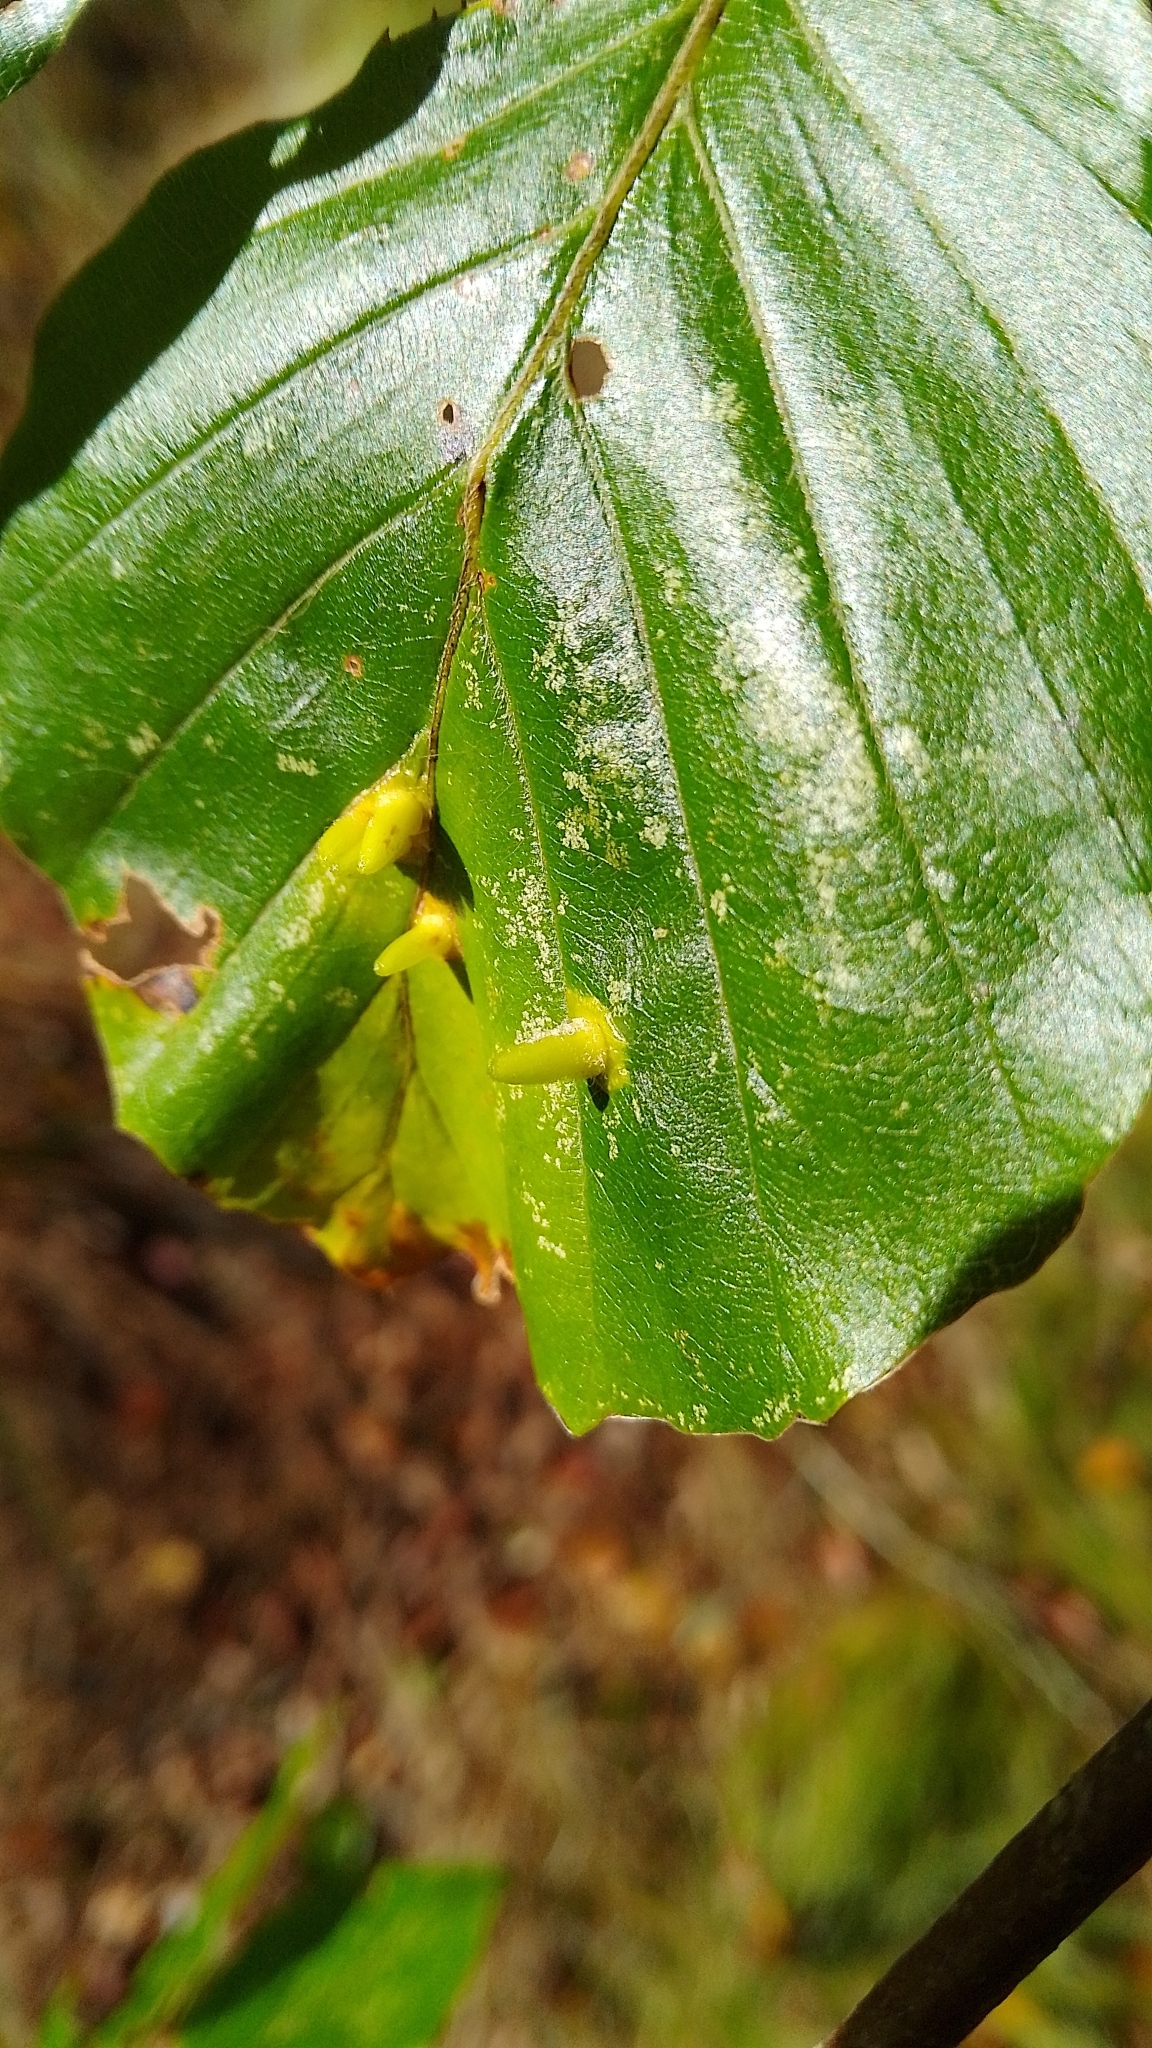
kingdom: Animalia
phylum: Arthropoda
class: Insecta
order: Diptera
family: Cecidomyiidae
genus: Hartigiola
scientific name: Hartigiola annulipes
